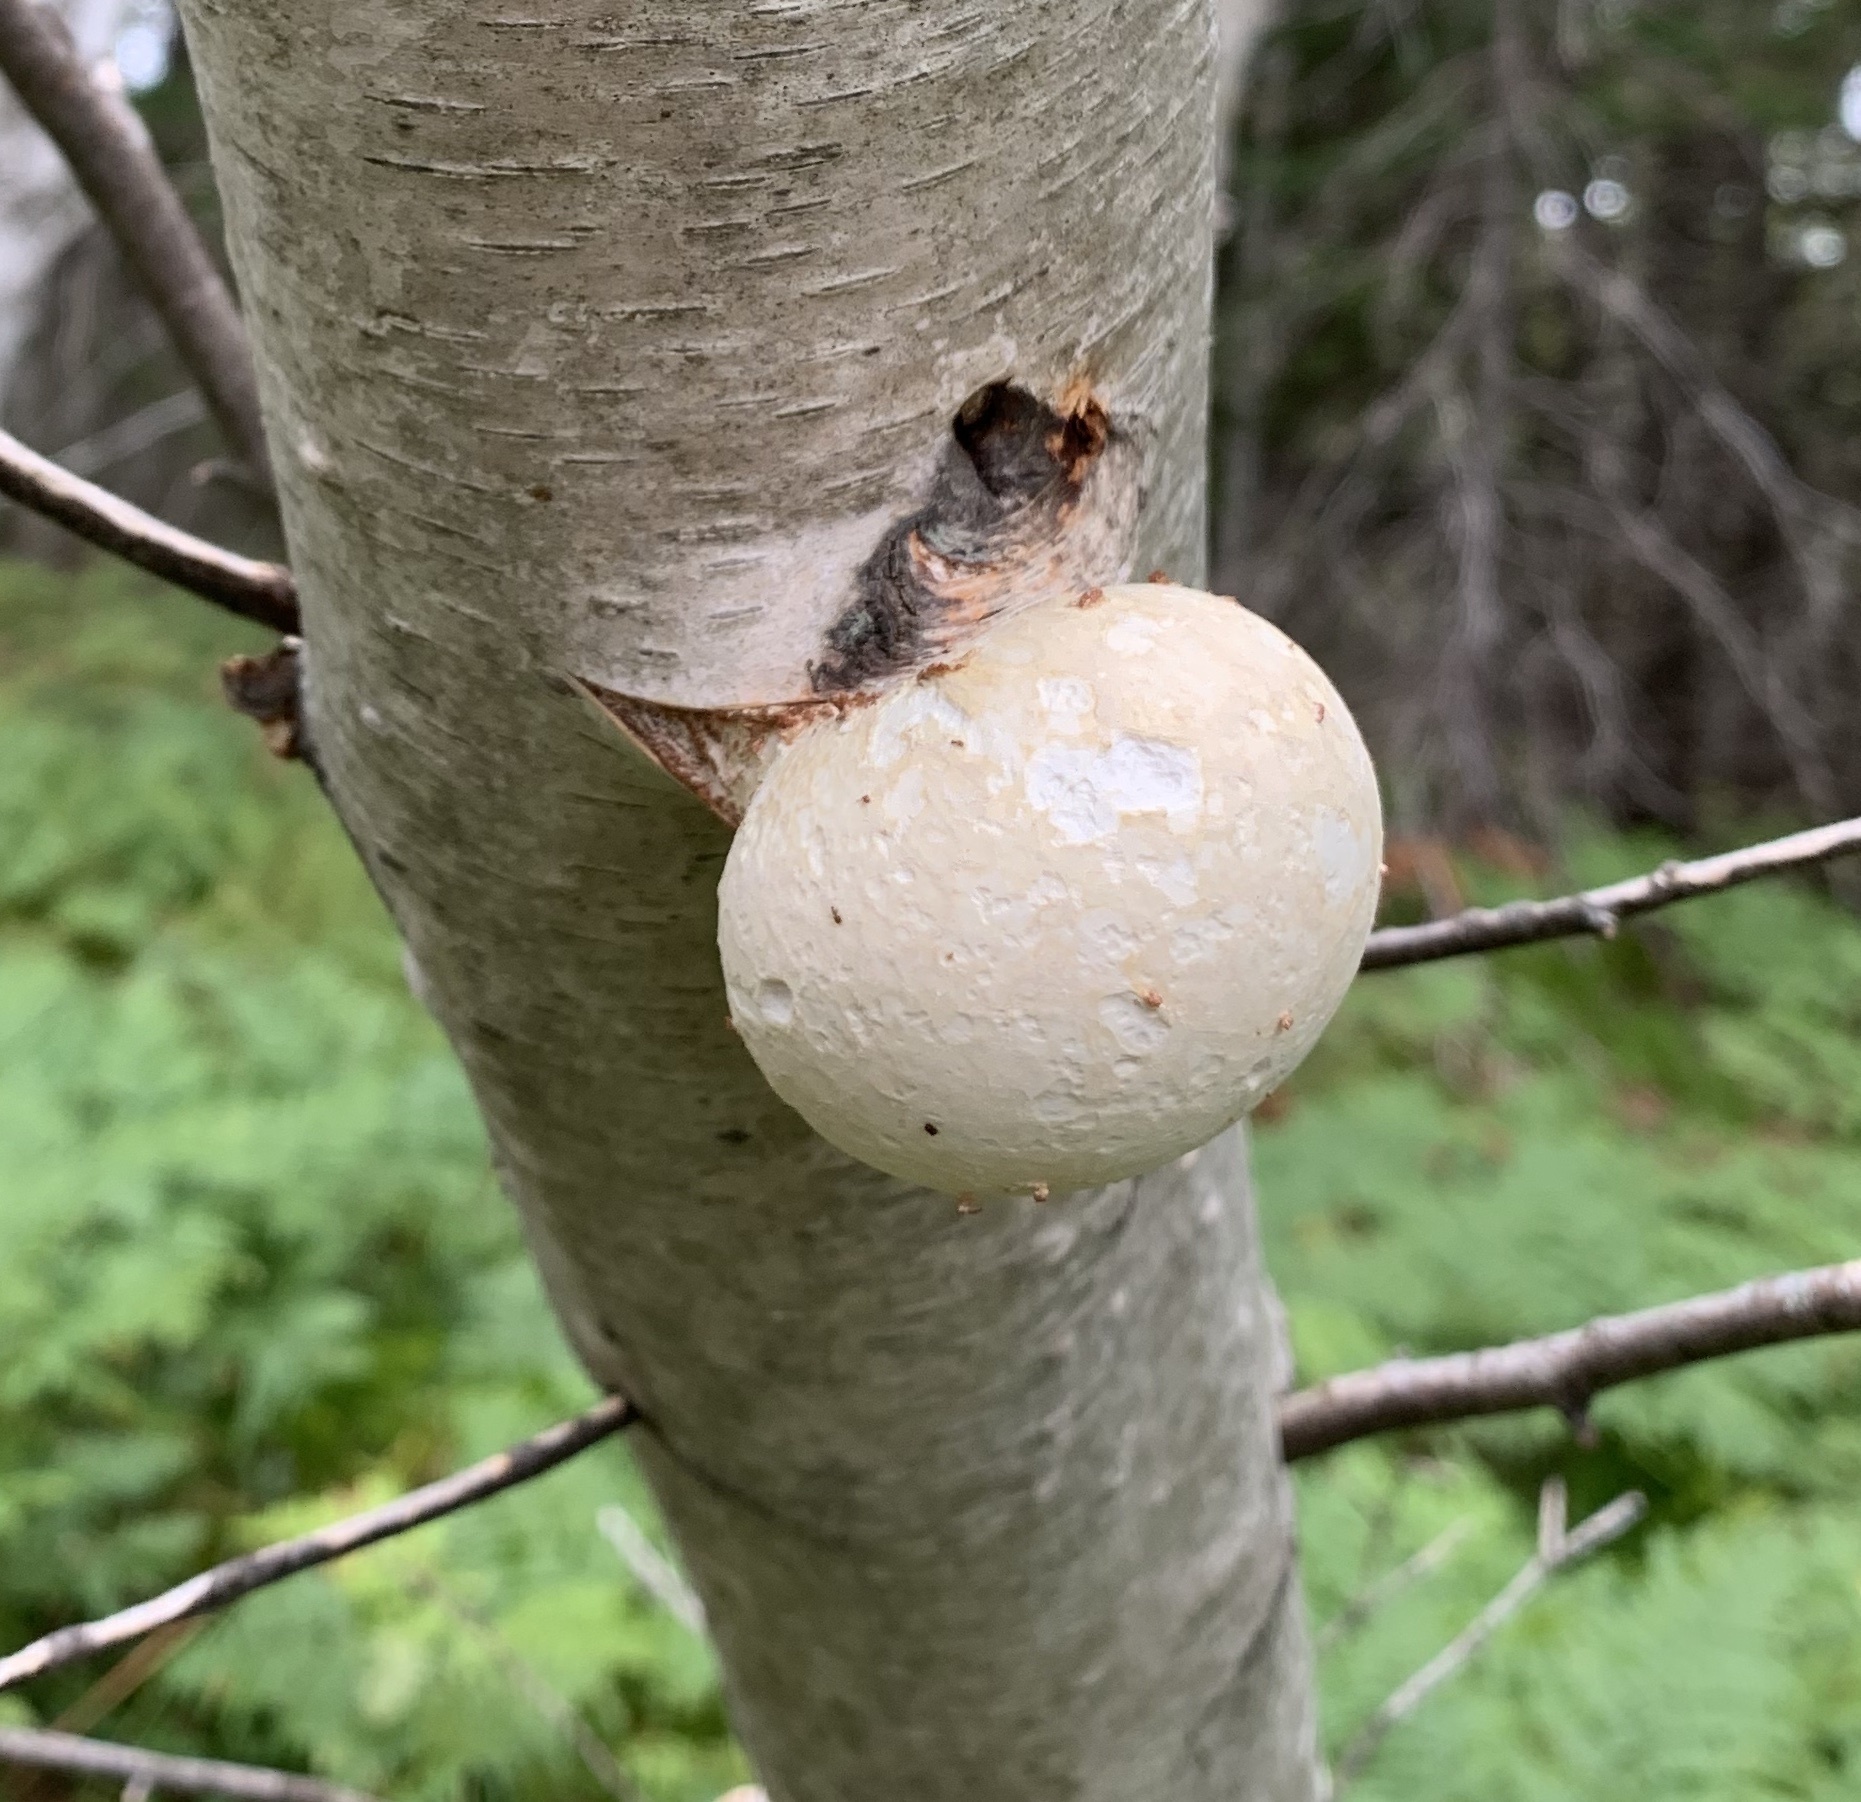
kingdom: Fungi
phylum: Basidiomycota
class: Agaricomycetes
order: Polyporales
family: Fomitopsidaceae
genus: Fomitopsis
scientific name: Fomitopsis betulina
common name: Birch polypore
